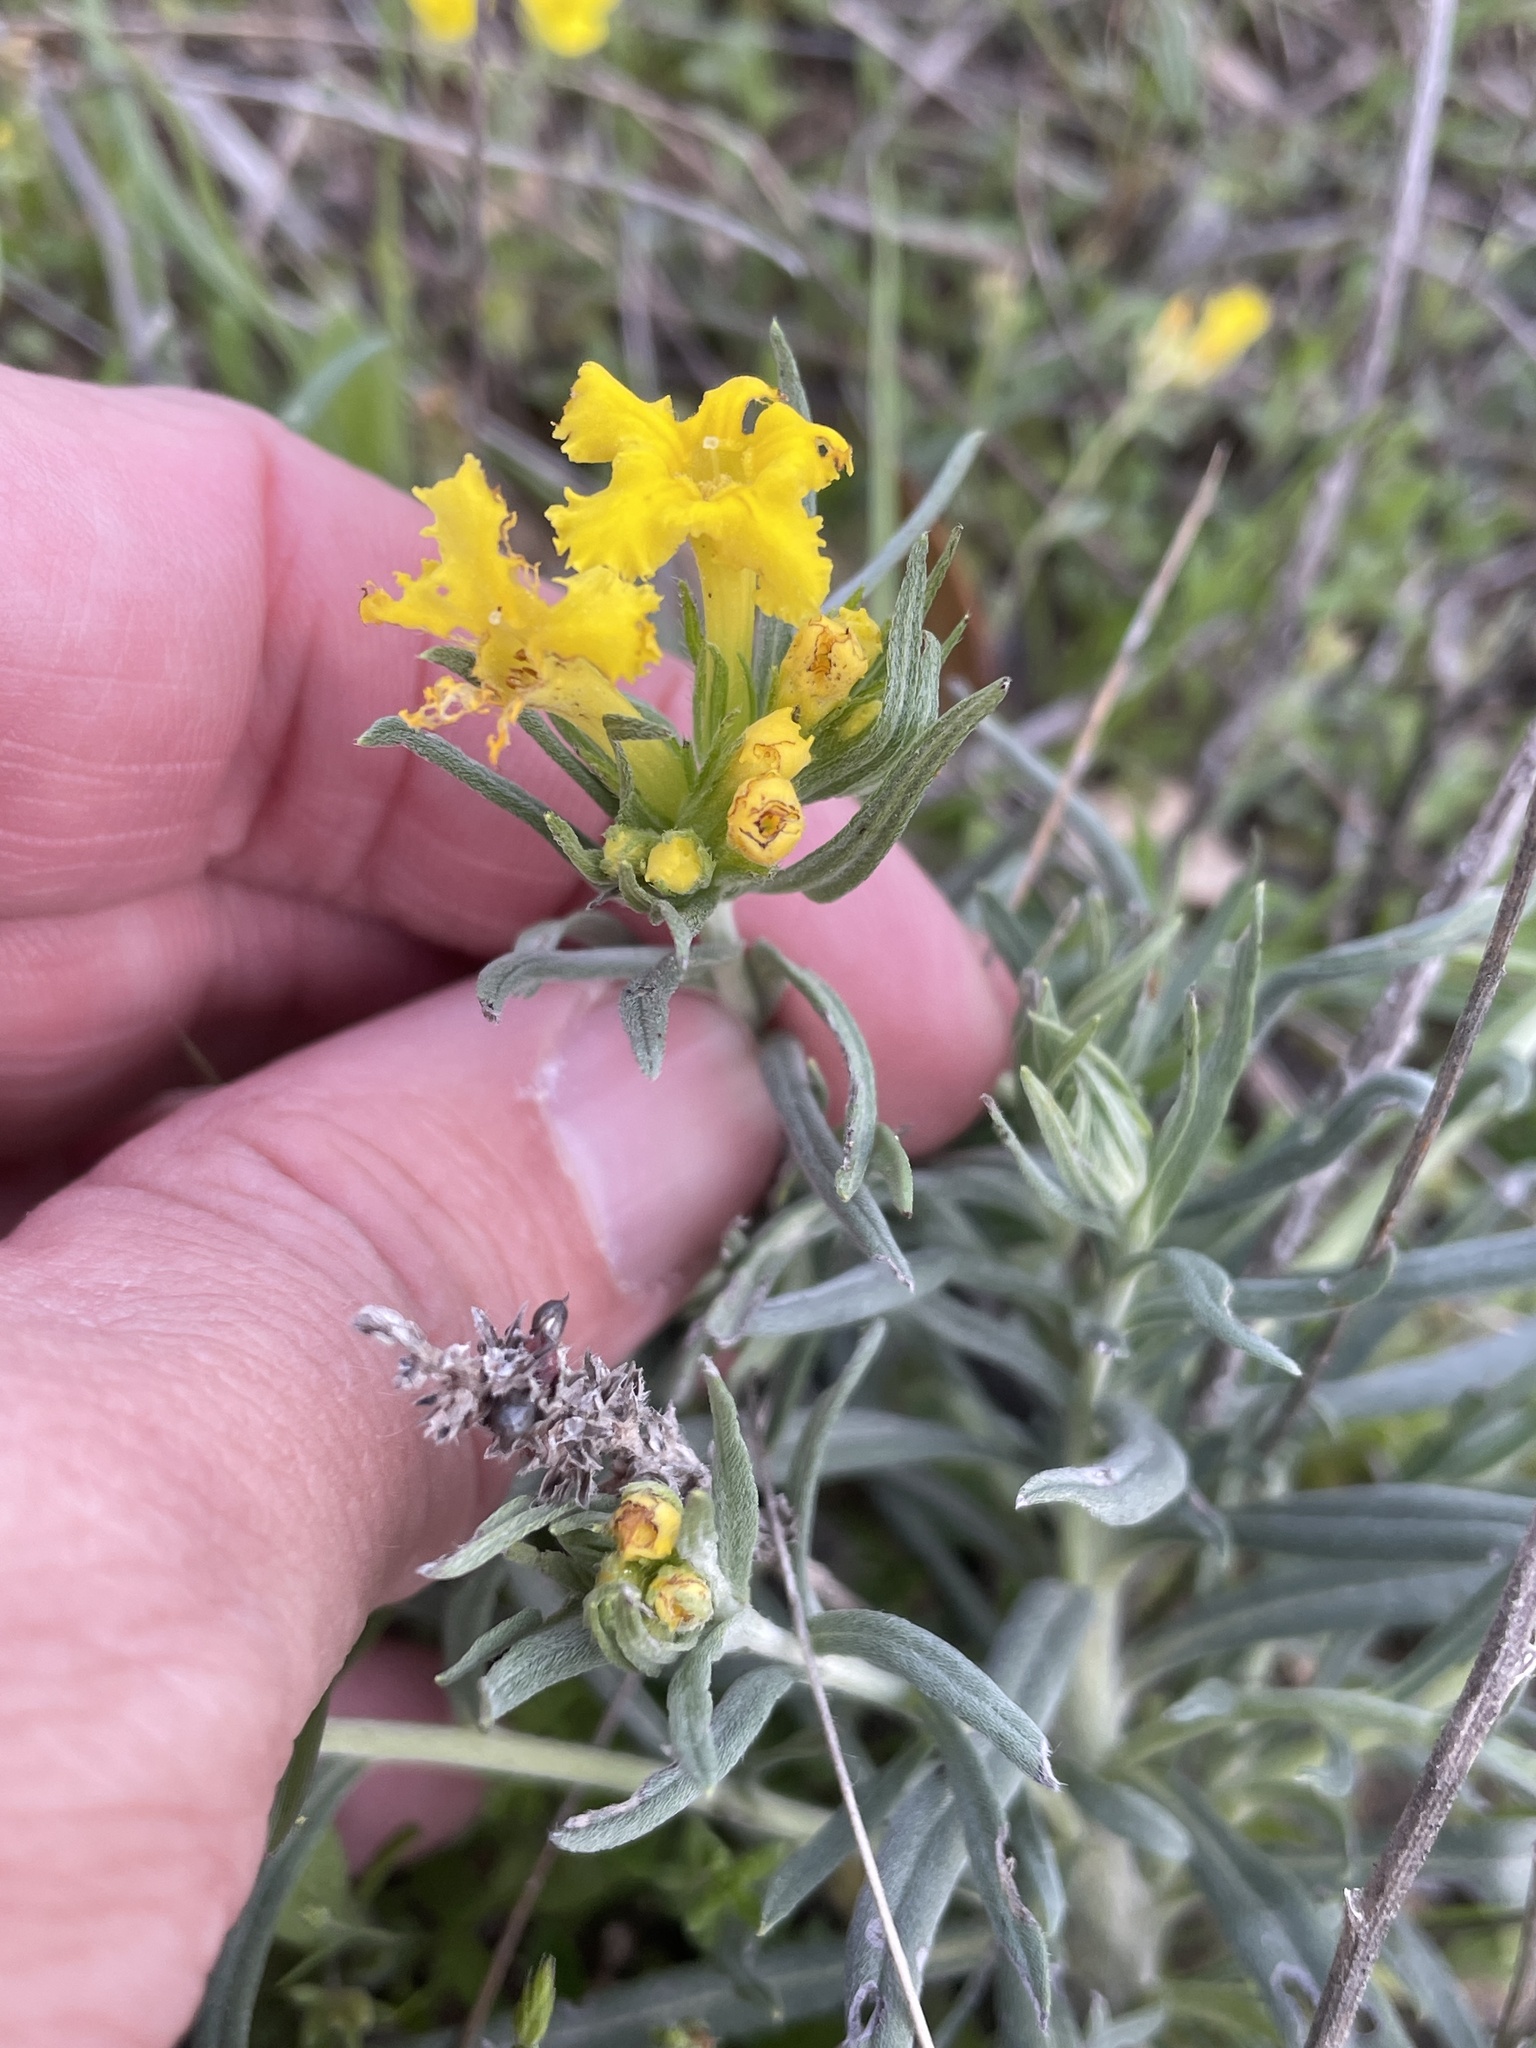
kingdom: Plantae
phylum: Tracheophyta
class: Magnoliopsida
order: Boraginales
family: Boraginaceae
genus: Lithospermum
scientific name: Lithospermum incisum
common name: Fringed gromwell
